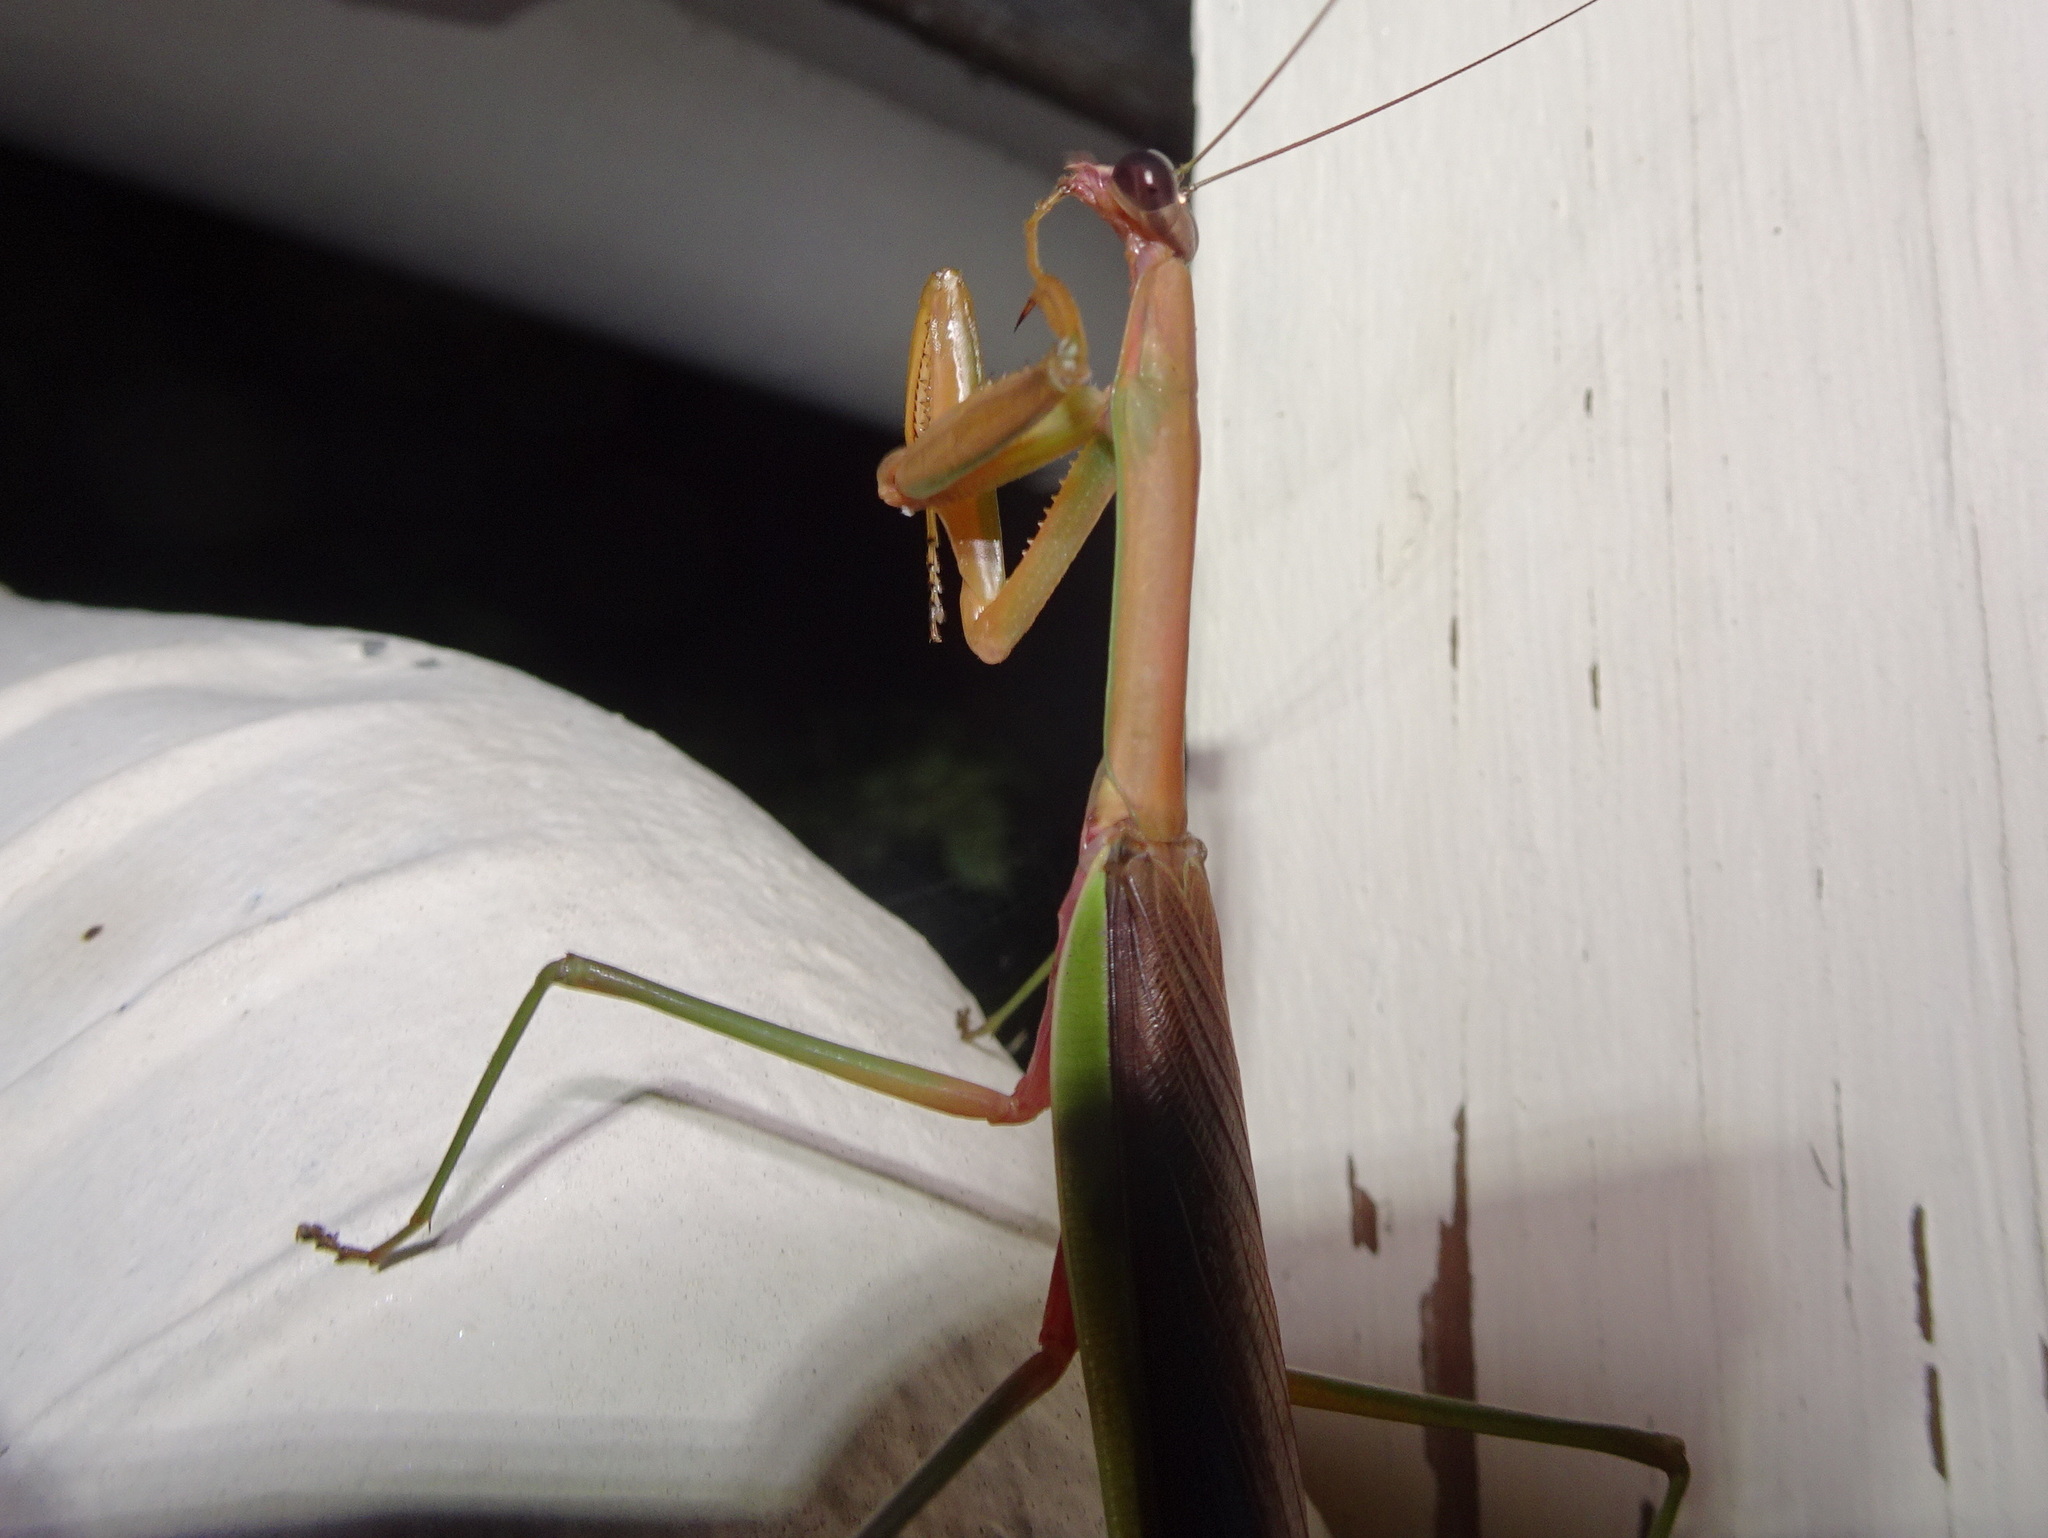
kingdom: Animalia
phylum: Arthropoda
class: Insecta
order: Mantodea
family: Mantidae
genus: Tenodera
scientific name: Tenodera sinensis
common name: Chinese mantis
